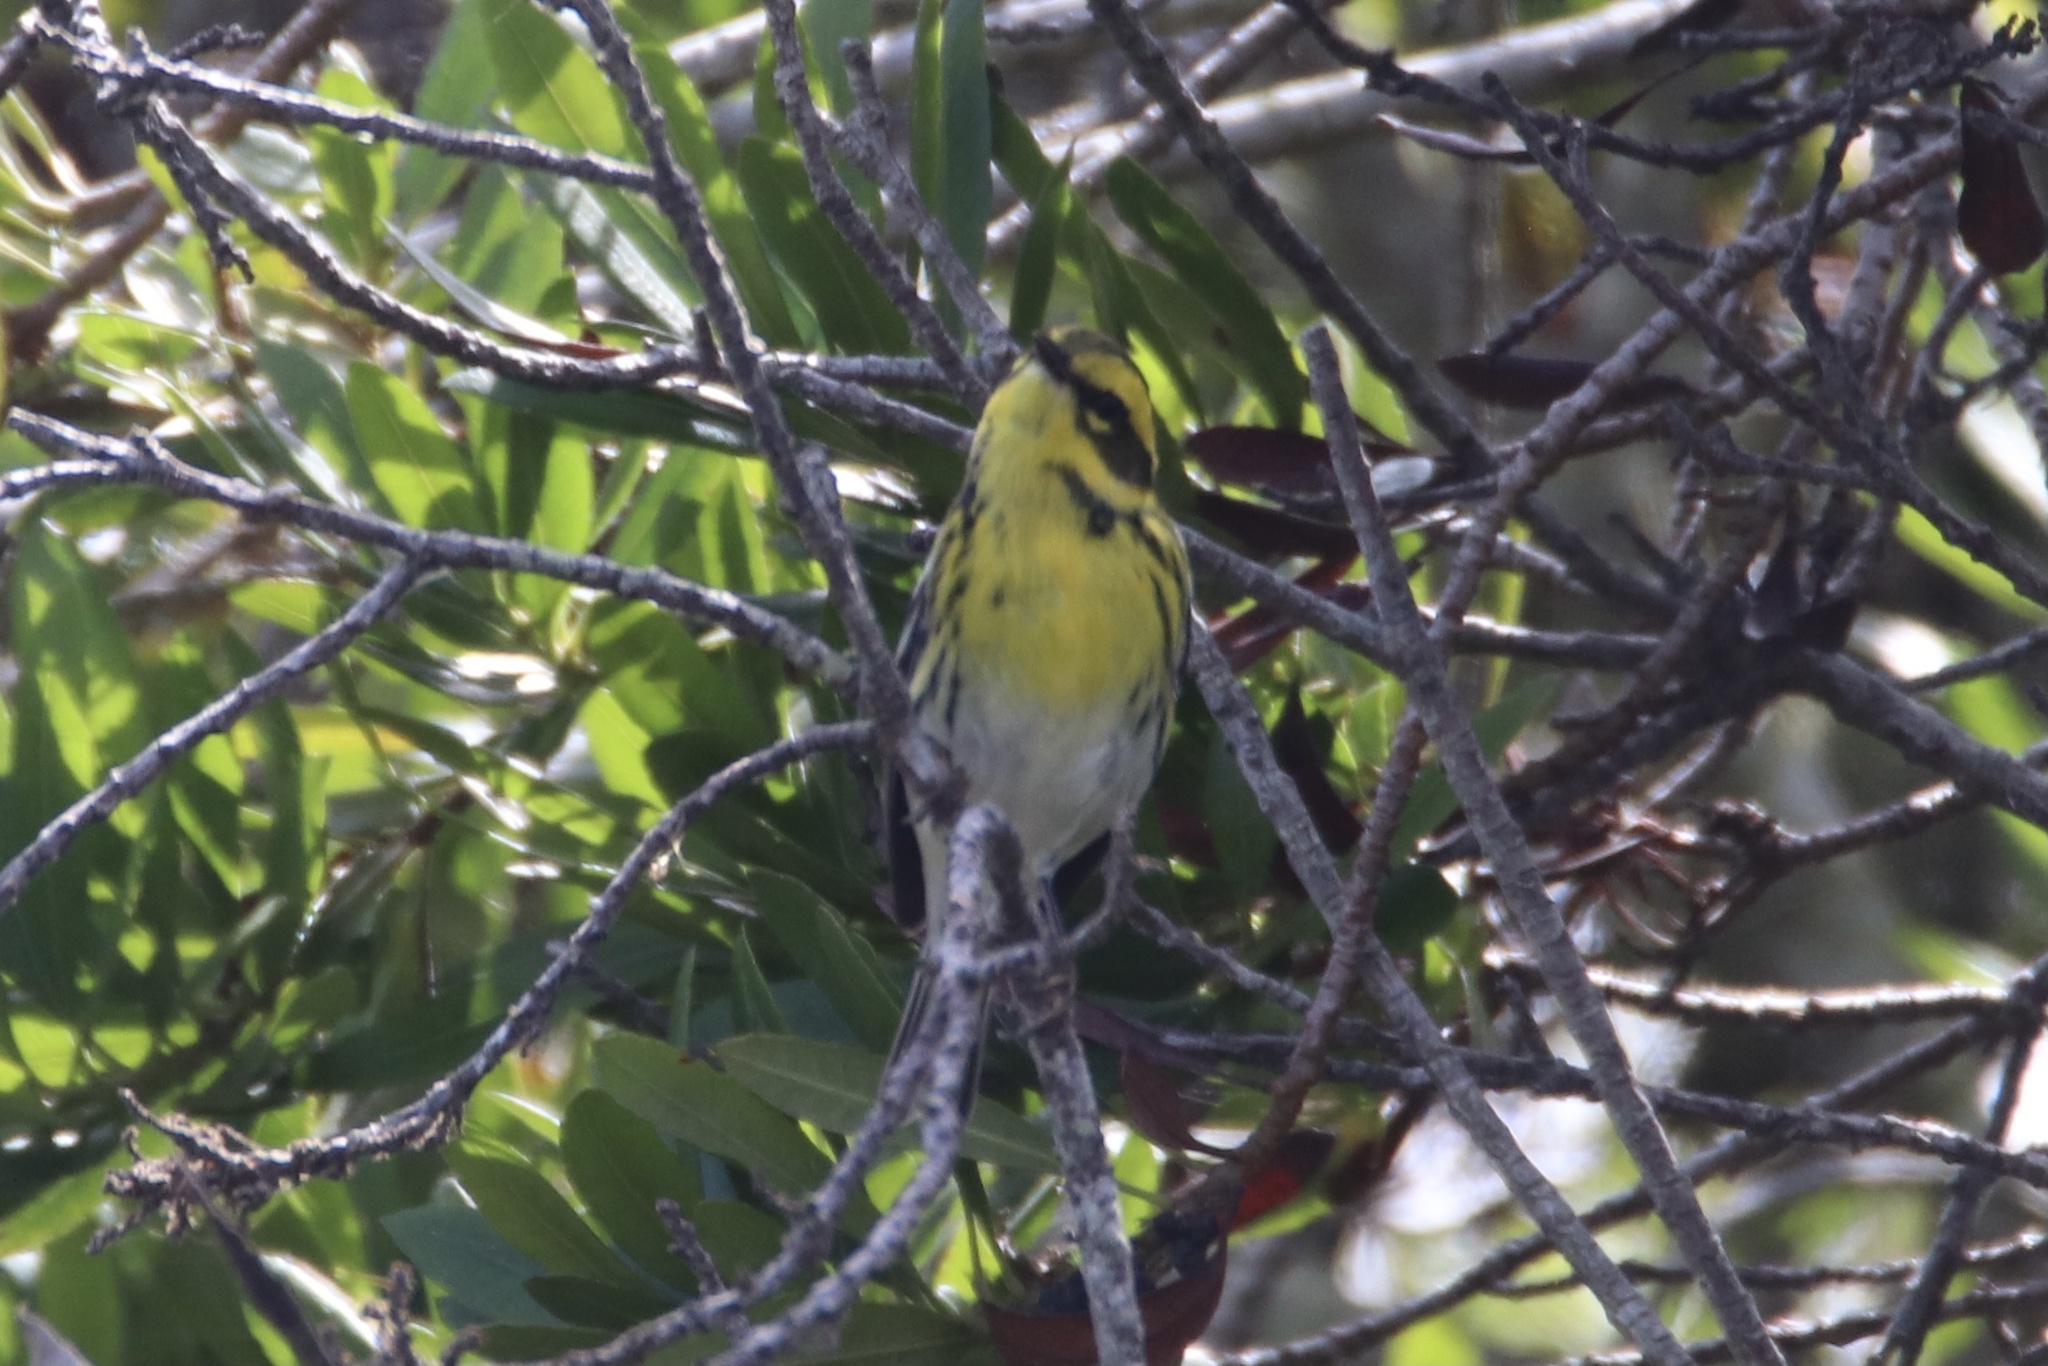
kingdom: Animalia
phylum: Chordata
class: Aves
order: Passeriformes
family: Parulidae
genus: Setophaga
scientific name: Setophaga townsendi
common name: Townsend's warbler
